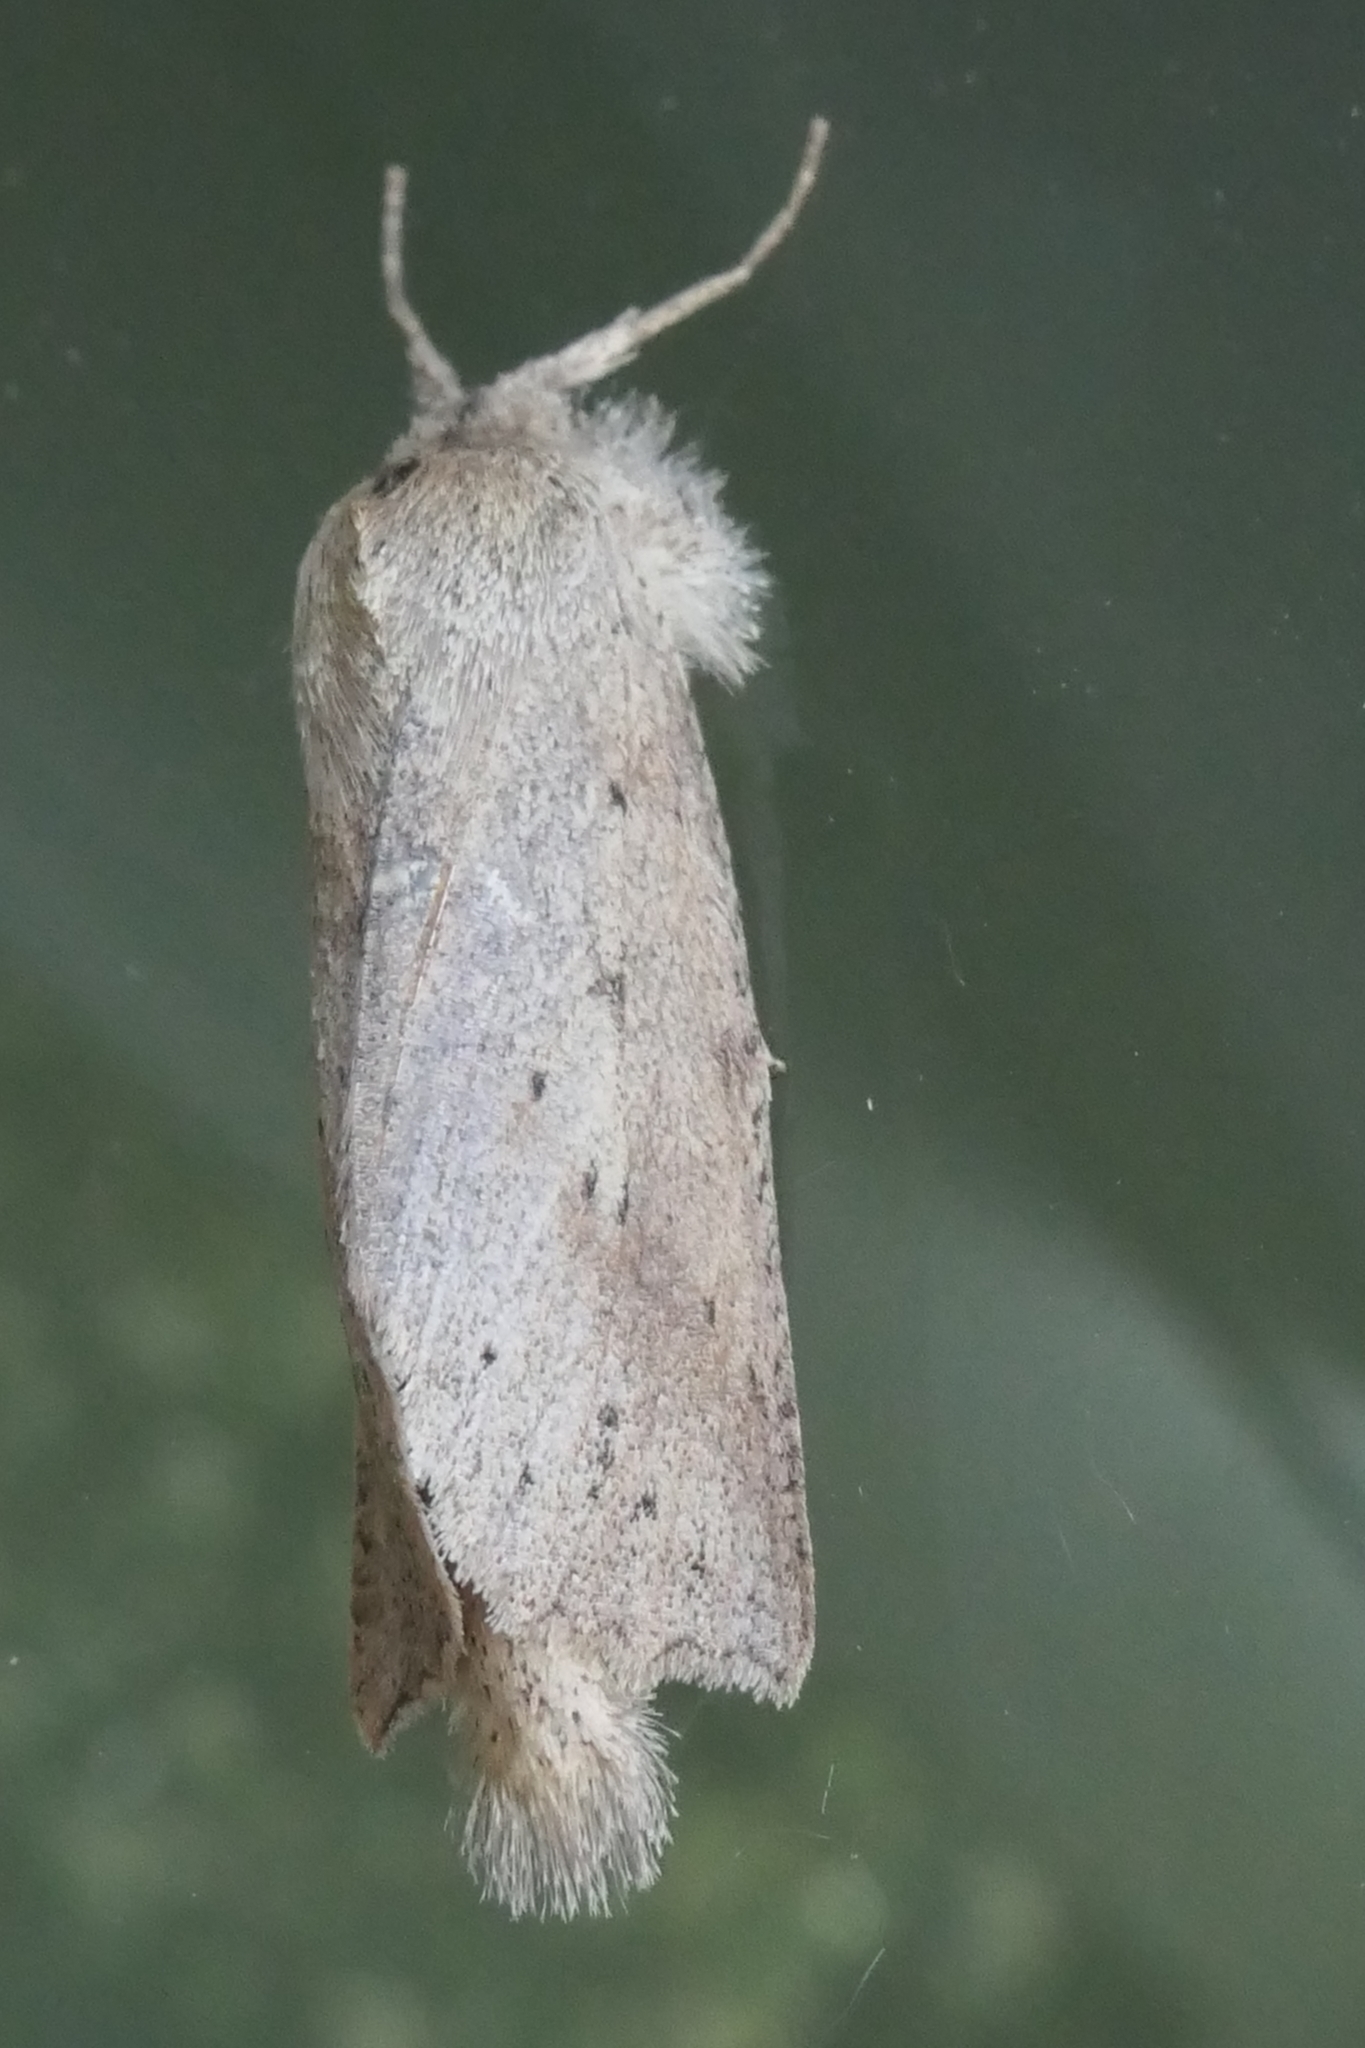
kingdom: Animalia
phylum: Arthropoda
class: Insecta
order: Lepidoptera
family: Geometridae
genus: Declana
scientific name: Declana leptomera
